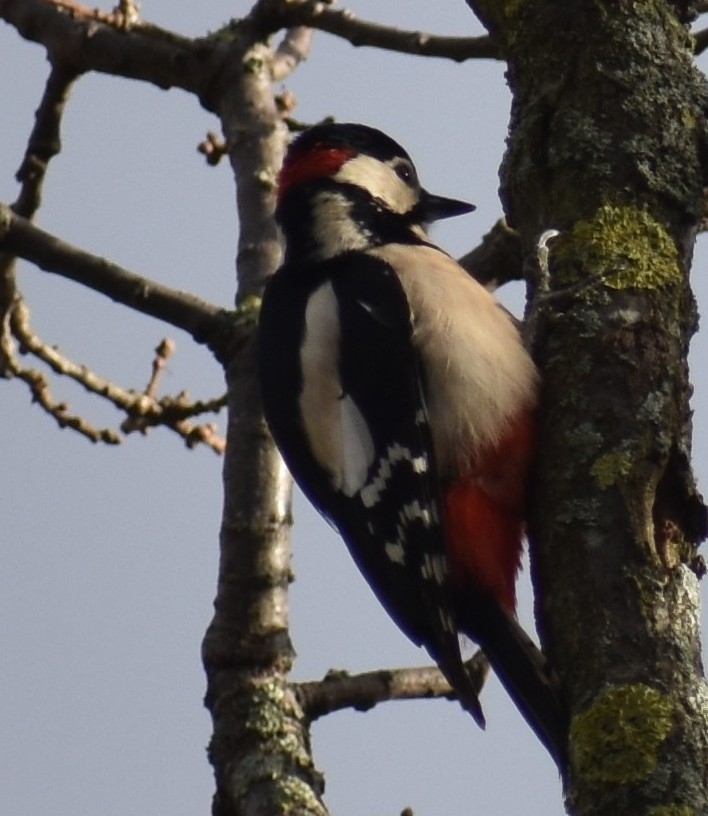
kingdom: Animalia
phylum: Chordata
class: Aves
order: Piciformes
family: Picidae
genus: Dendrocopos
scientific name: Dendrocopos major
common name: Great spotted woodpecker
